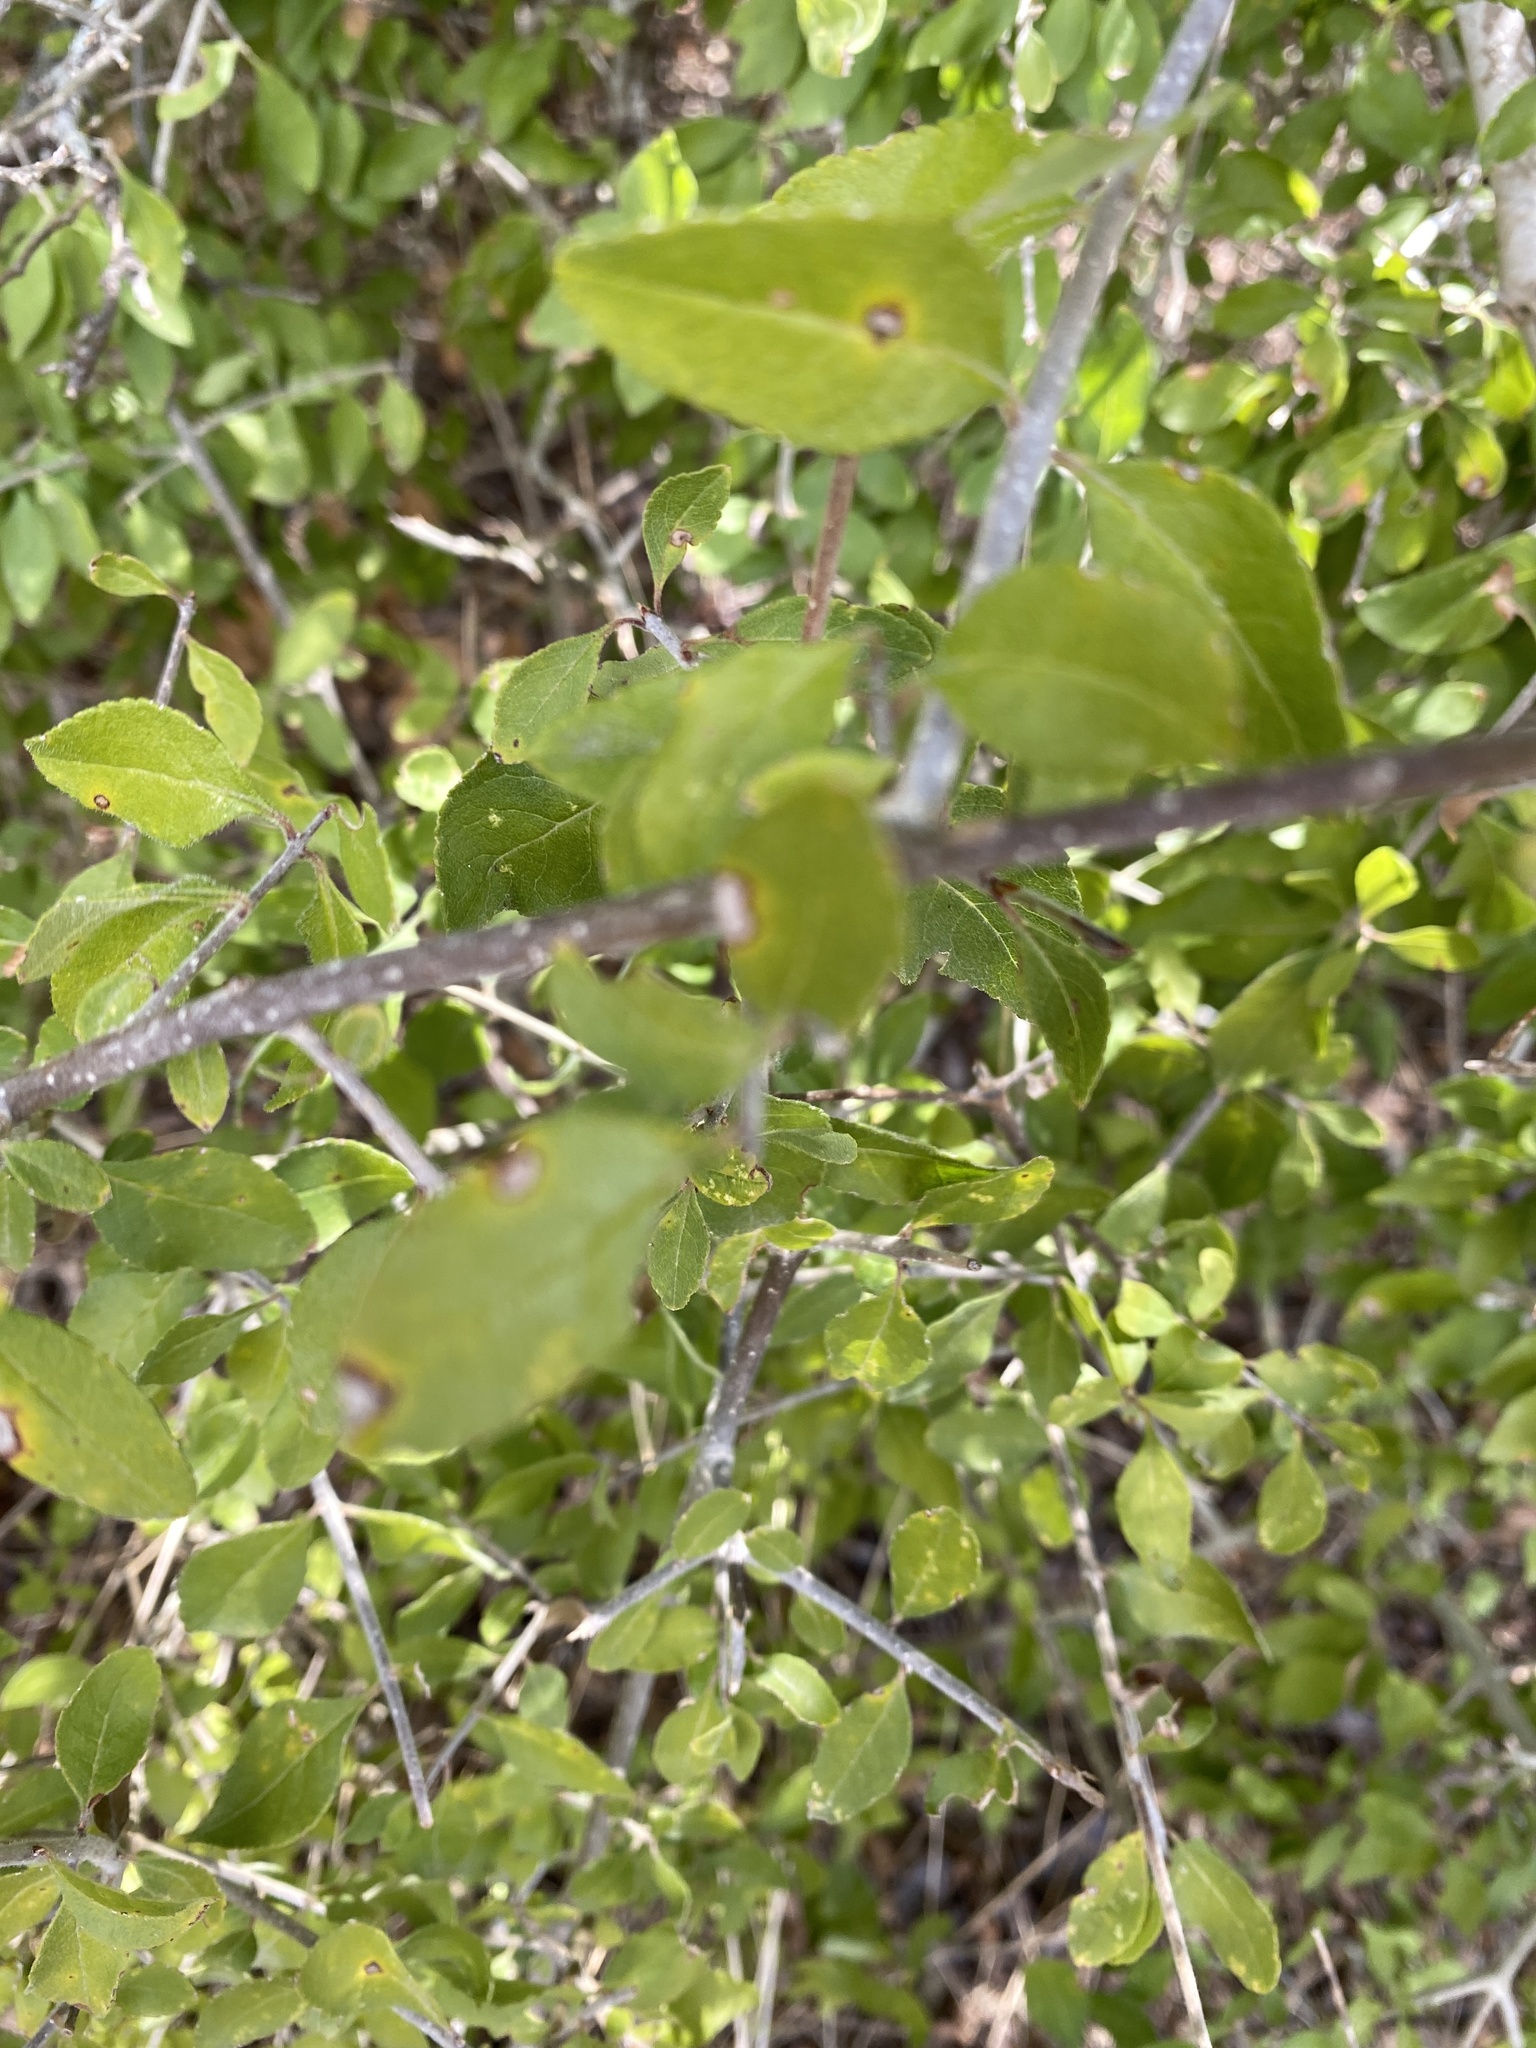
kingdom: Plantae
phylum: Tracheophyta
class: Magnoliopsida
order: Lamiales
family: Oleaceae
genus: Forestiera
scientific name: Forestiera pubescens
